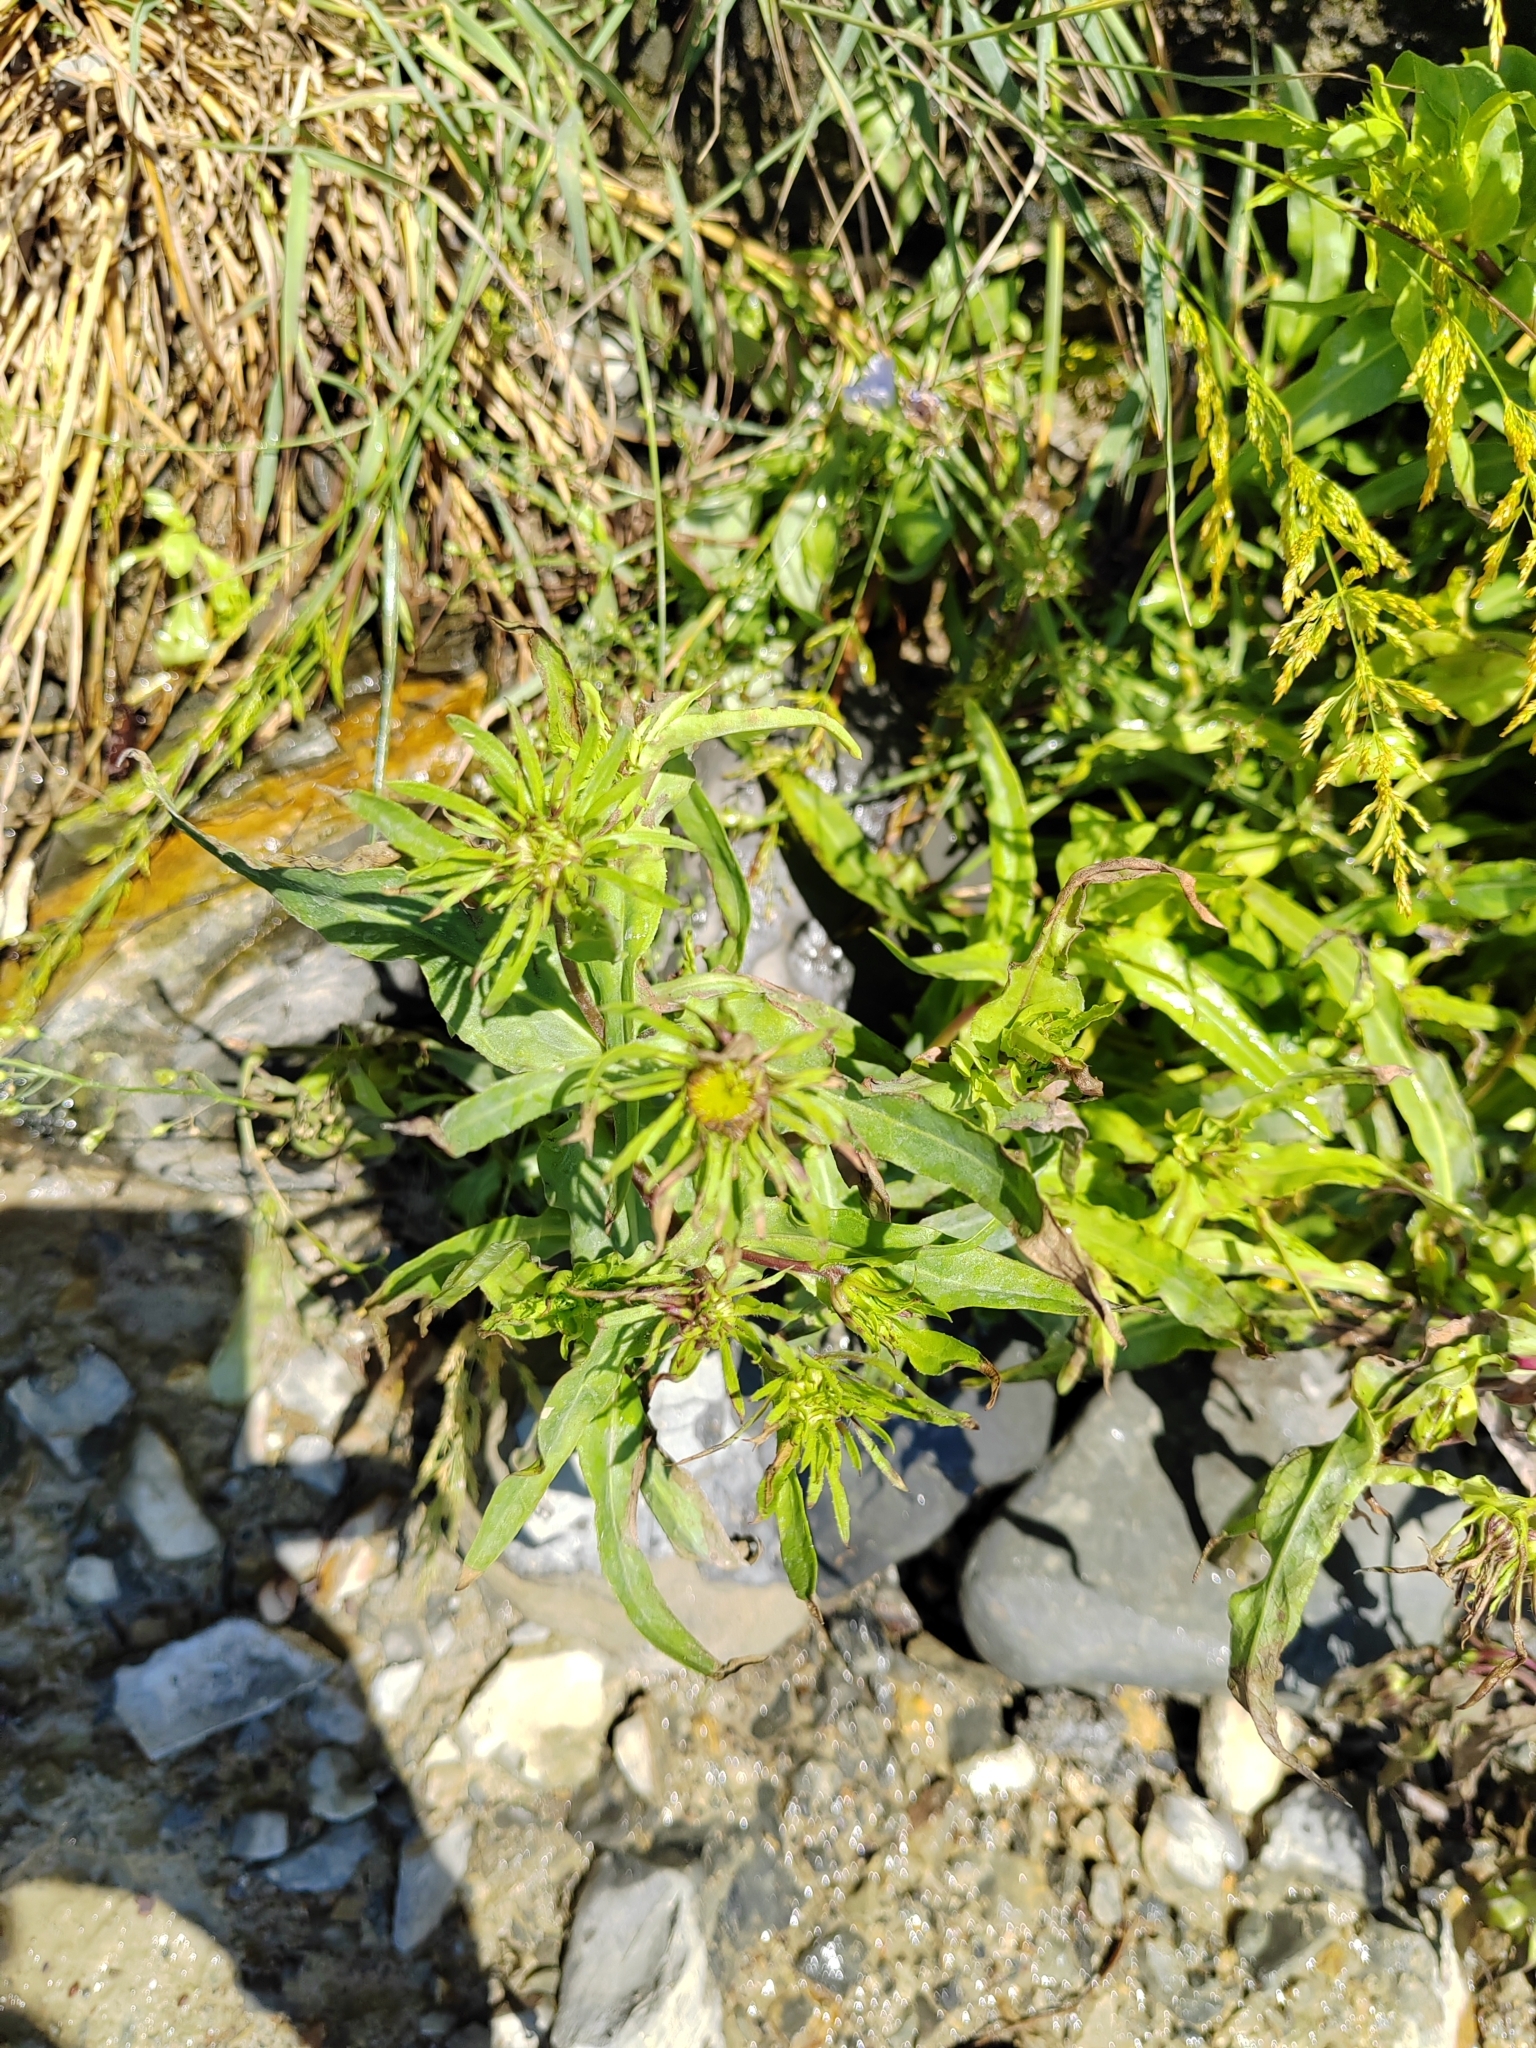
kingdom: Plantae
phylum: Tracheophyta
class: Magnoliopsida
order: Asterales
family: Asteraceae
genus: Pentanema
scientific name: Pentanema caspicum
